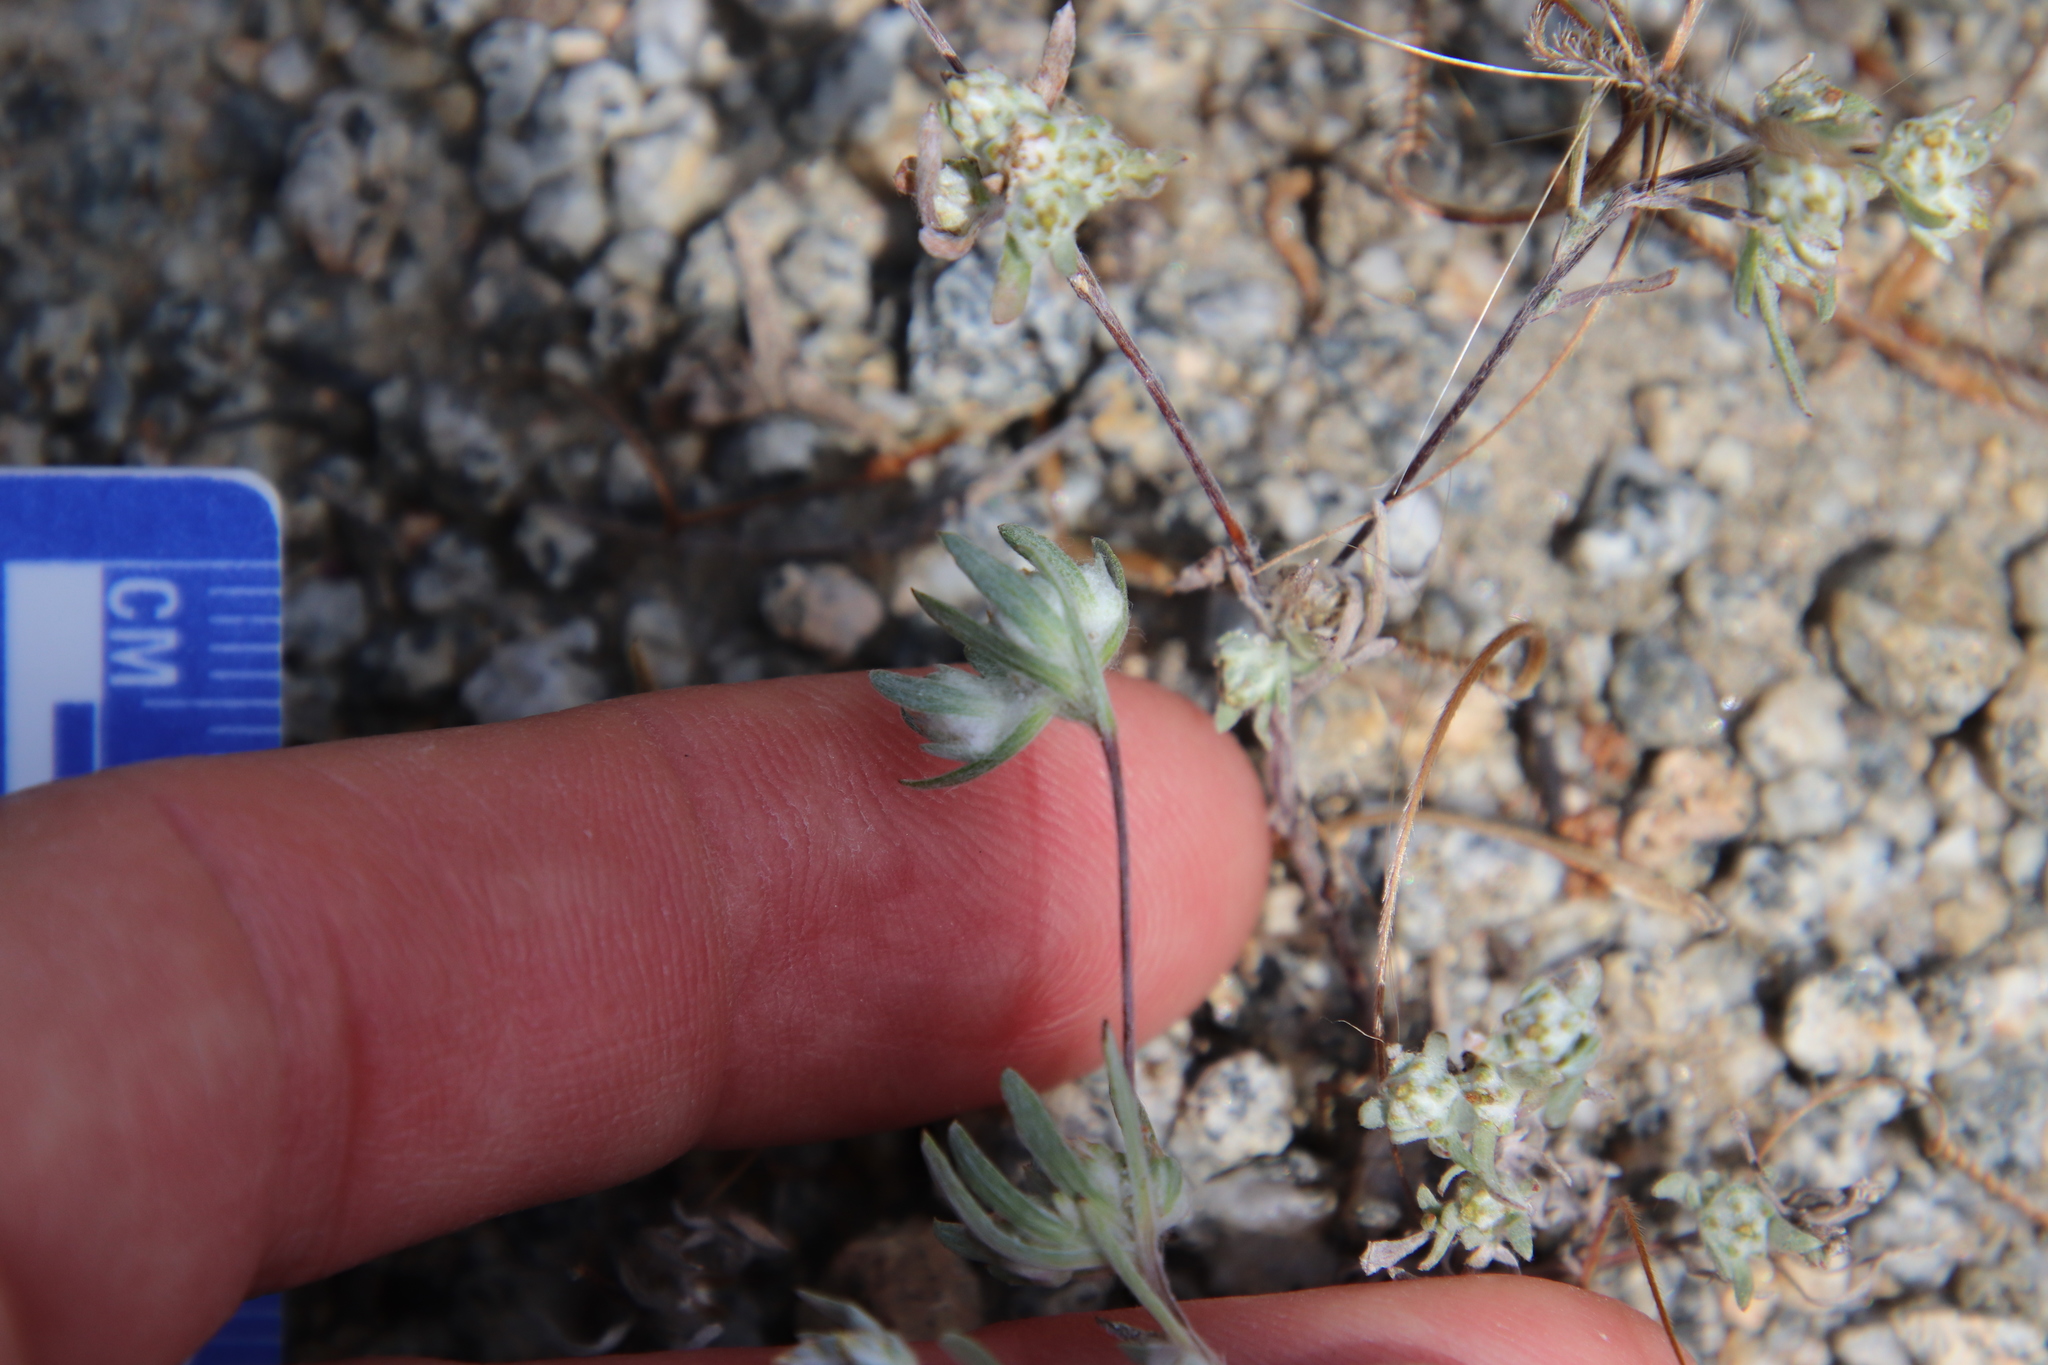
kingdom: Plantae
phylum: Tracheophyta
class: Magnoliopsida
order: Asterales
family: Asteraceae
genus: Logfia
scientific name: Logfia arizonica
